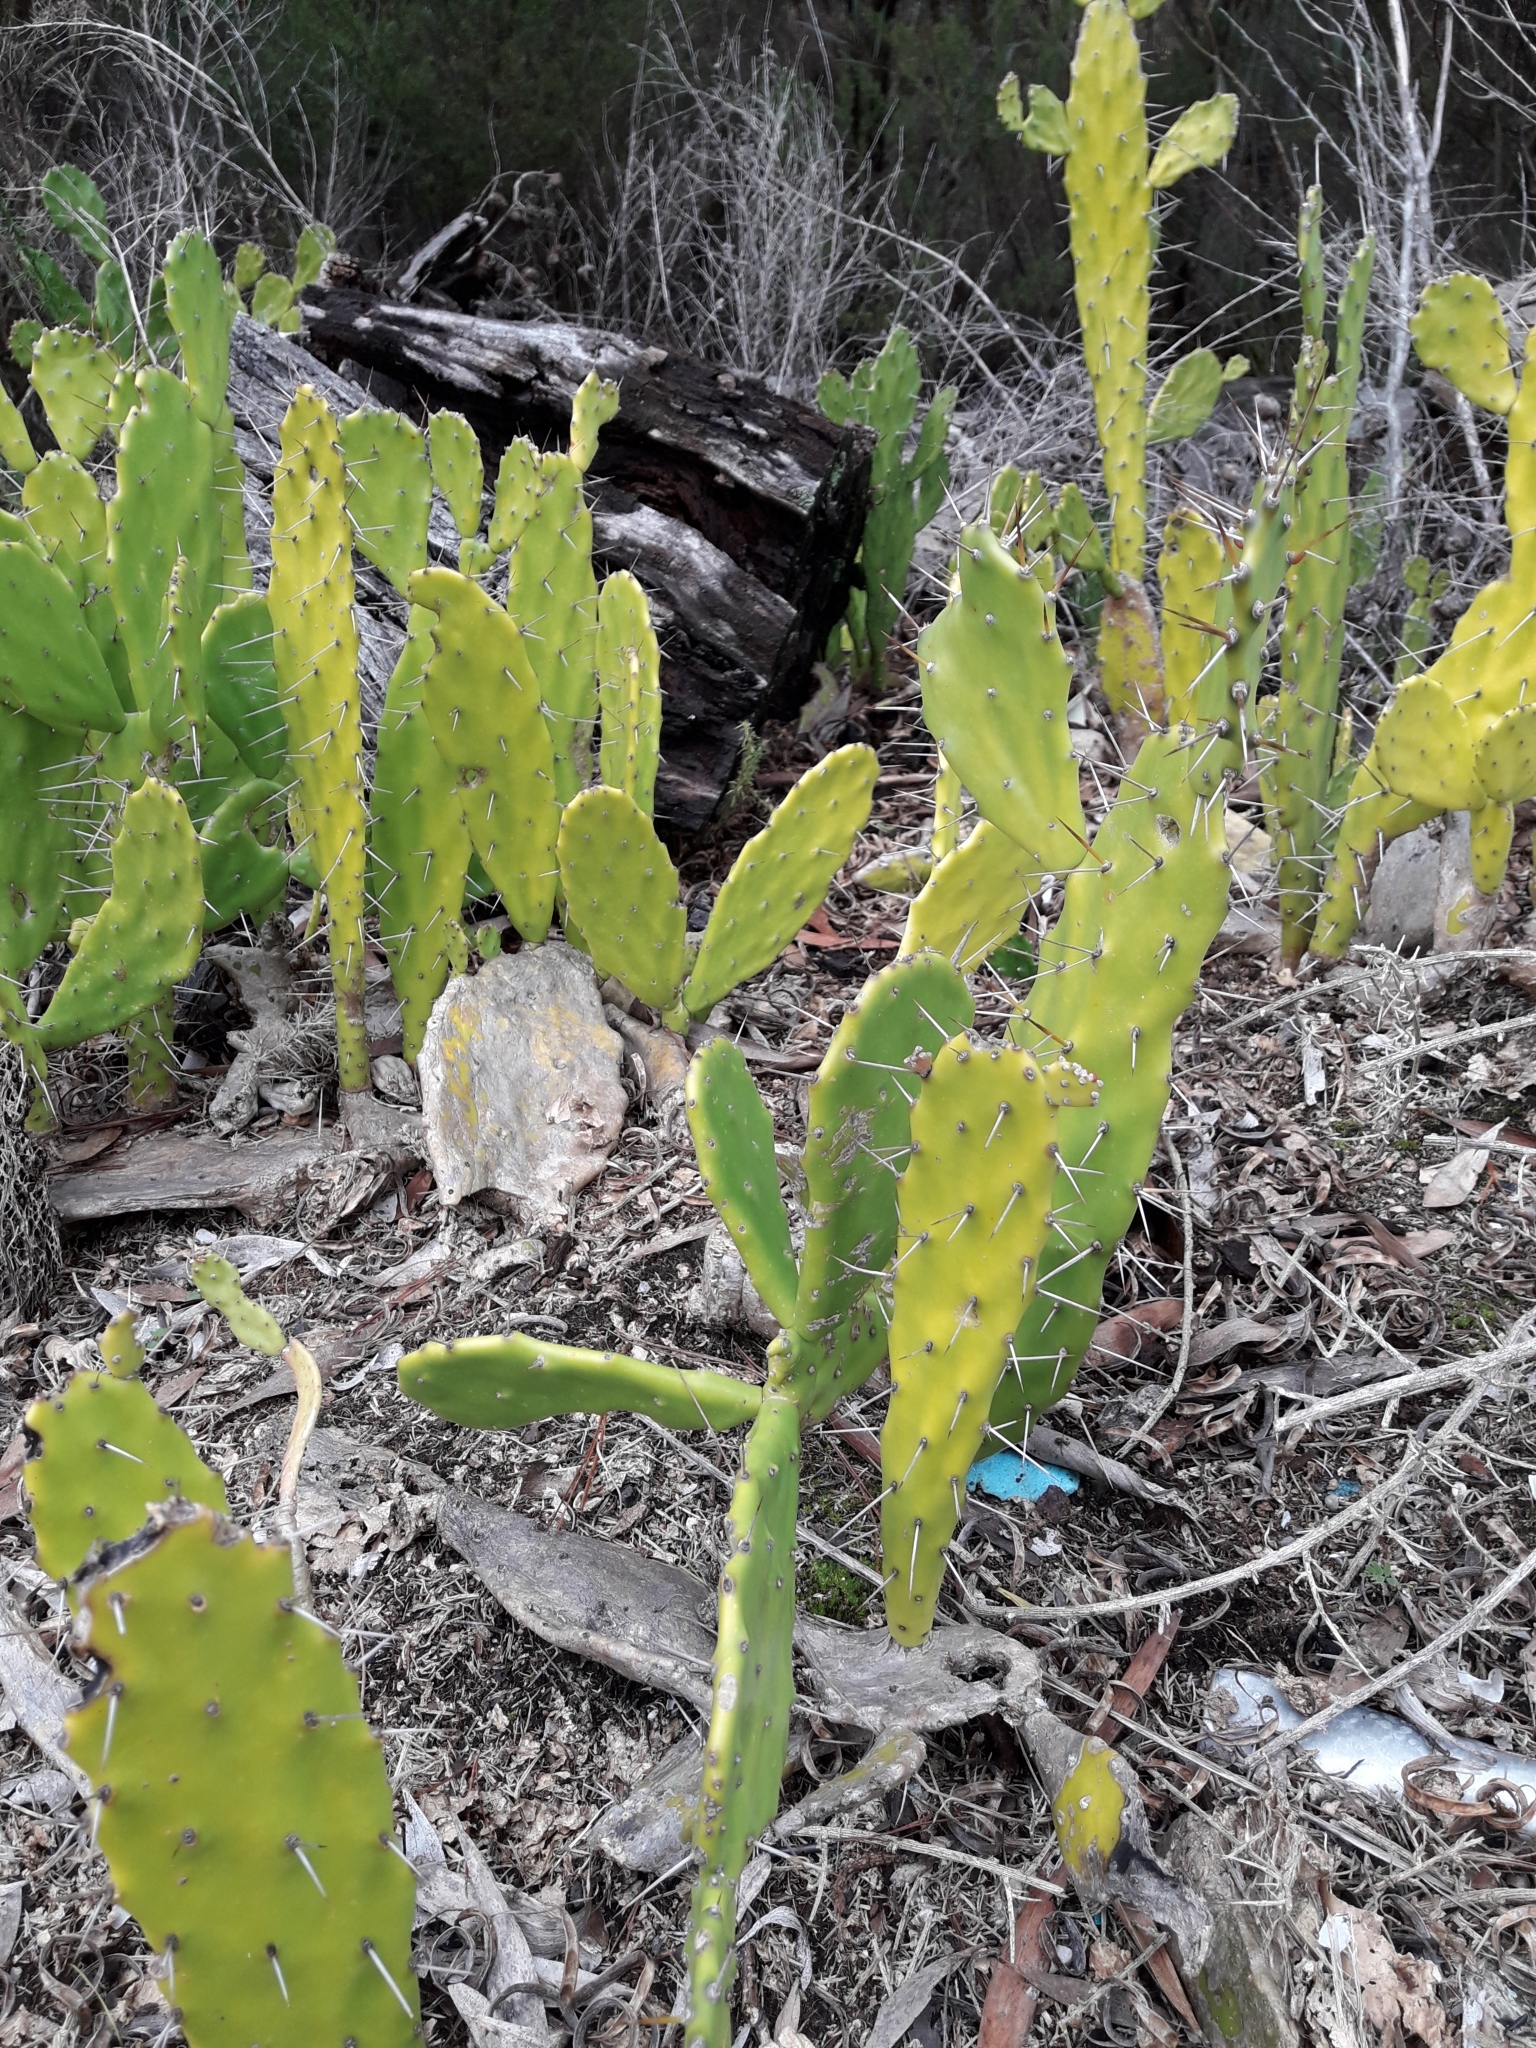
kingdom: Plantae
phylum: Tracheophyta
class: Magnoliopsida
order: Caryophyllales
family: Cactaceae
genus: Opuntia
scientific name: Opuntia monacantha
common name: Common pricklypear
